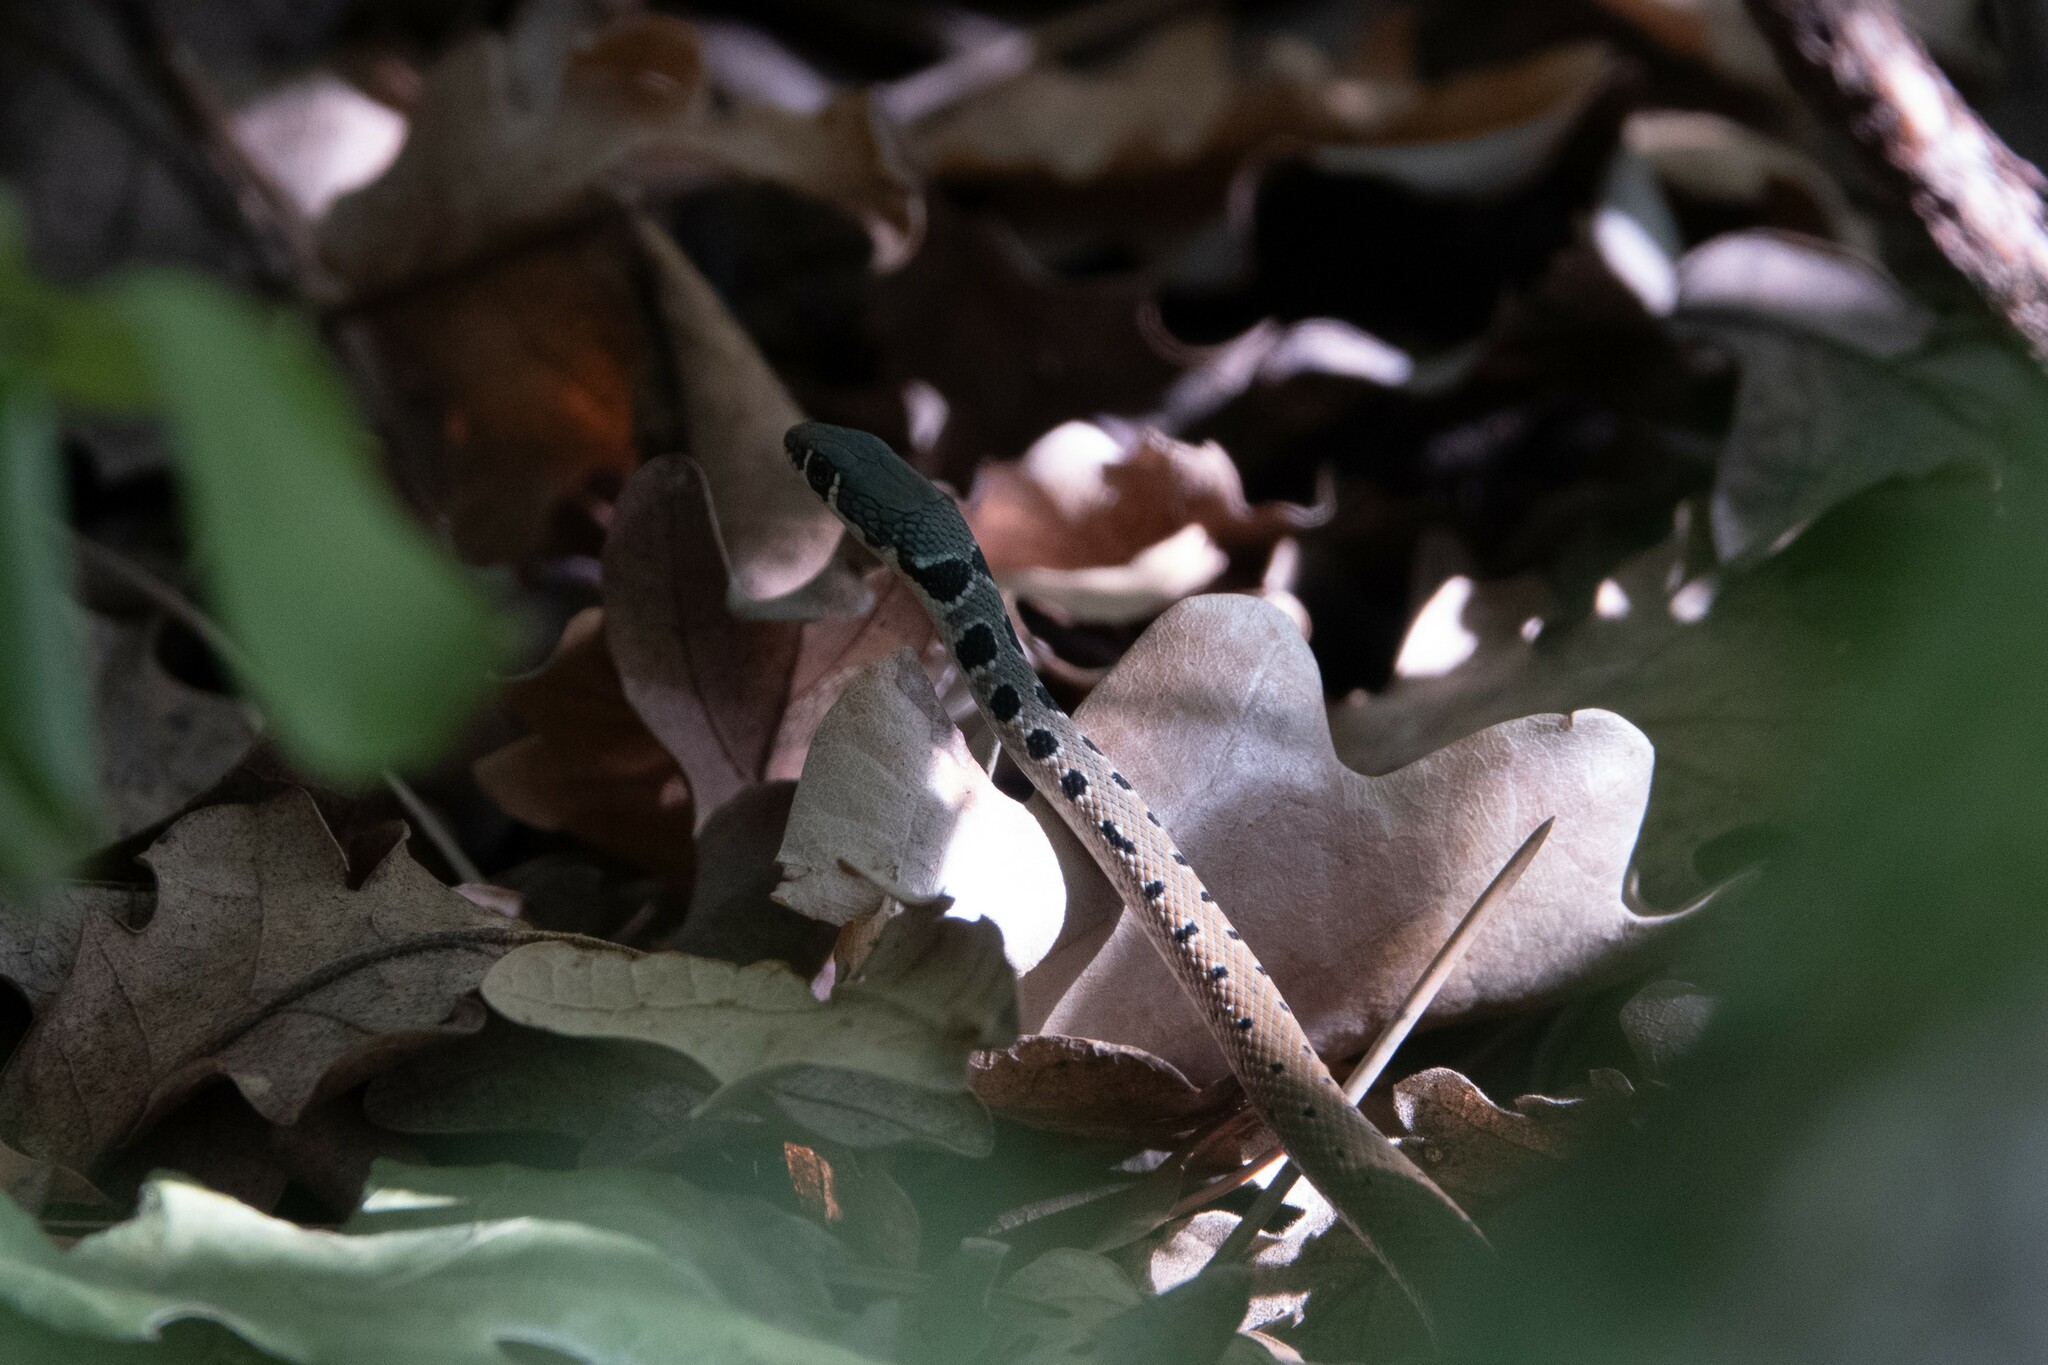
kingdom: Animalia
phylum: Chordata
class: Squamata
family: Colubridae
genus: Platyceps
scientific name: Platyceps najadum
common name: Dahl's whip snake
